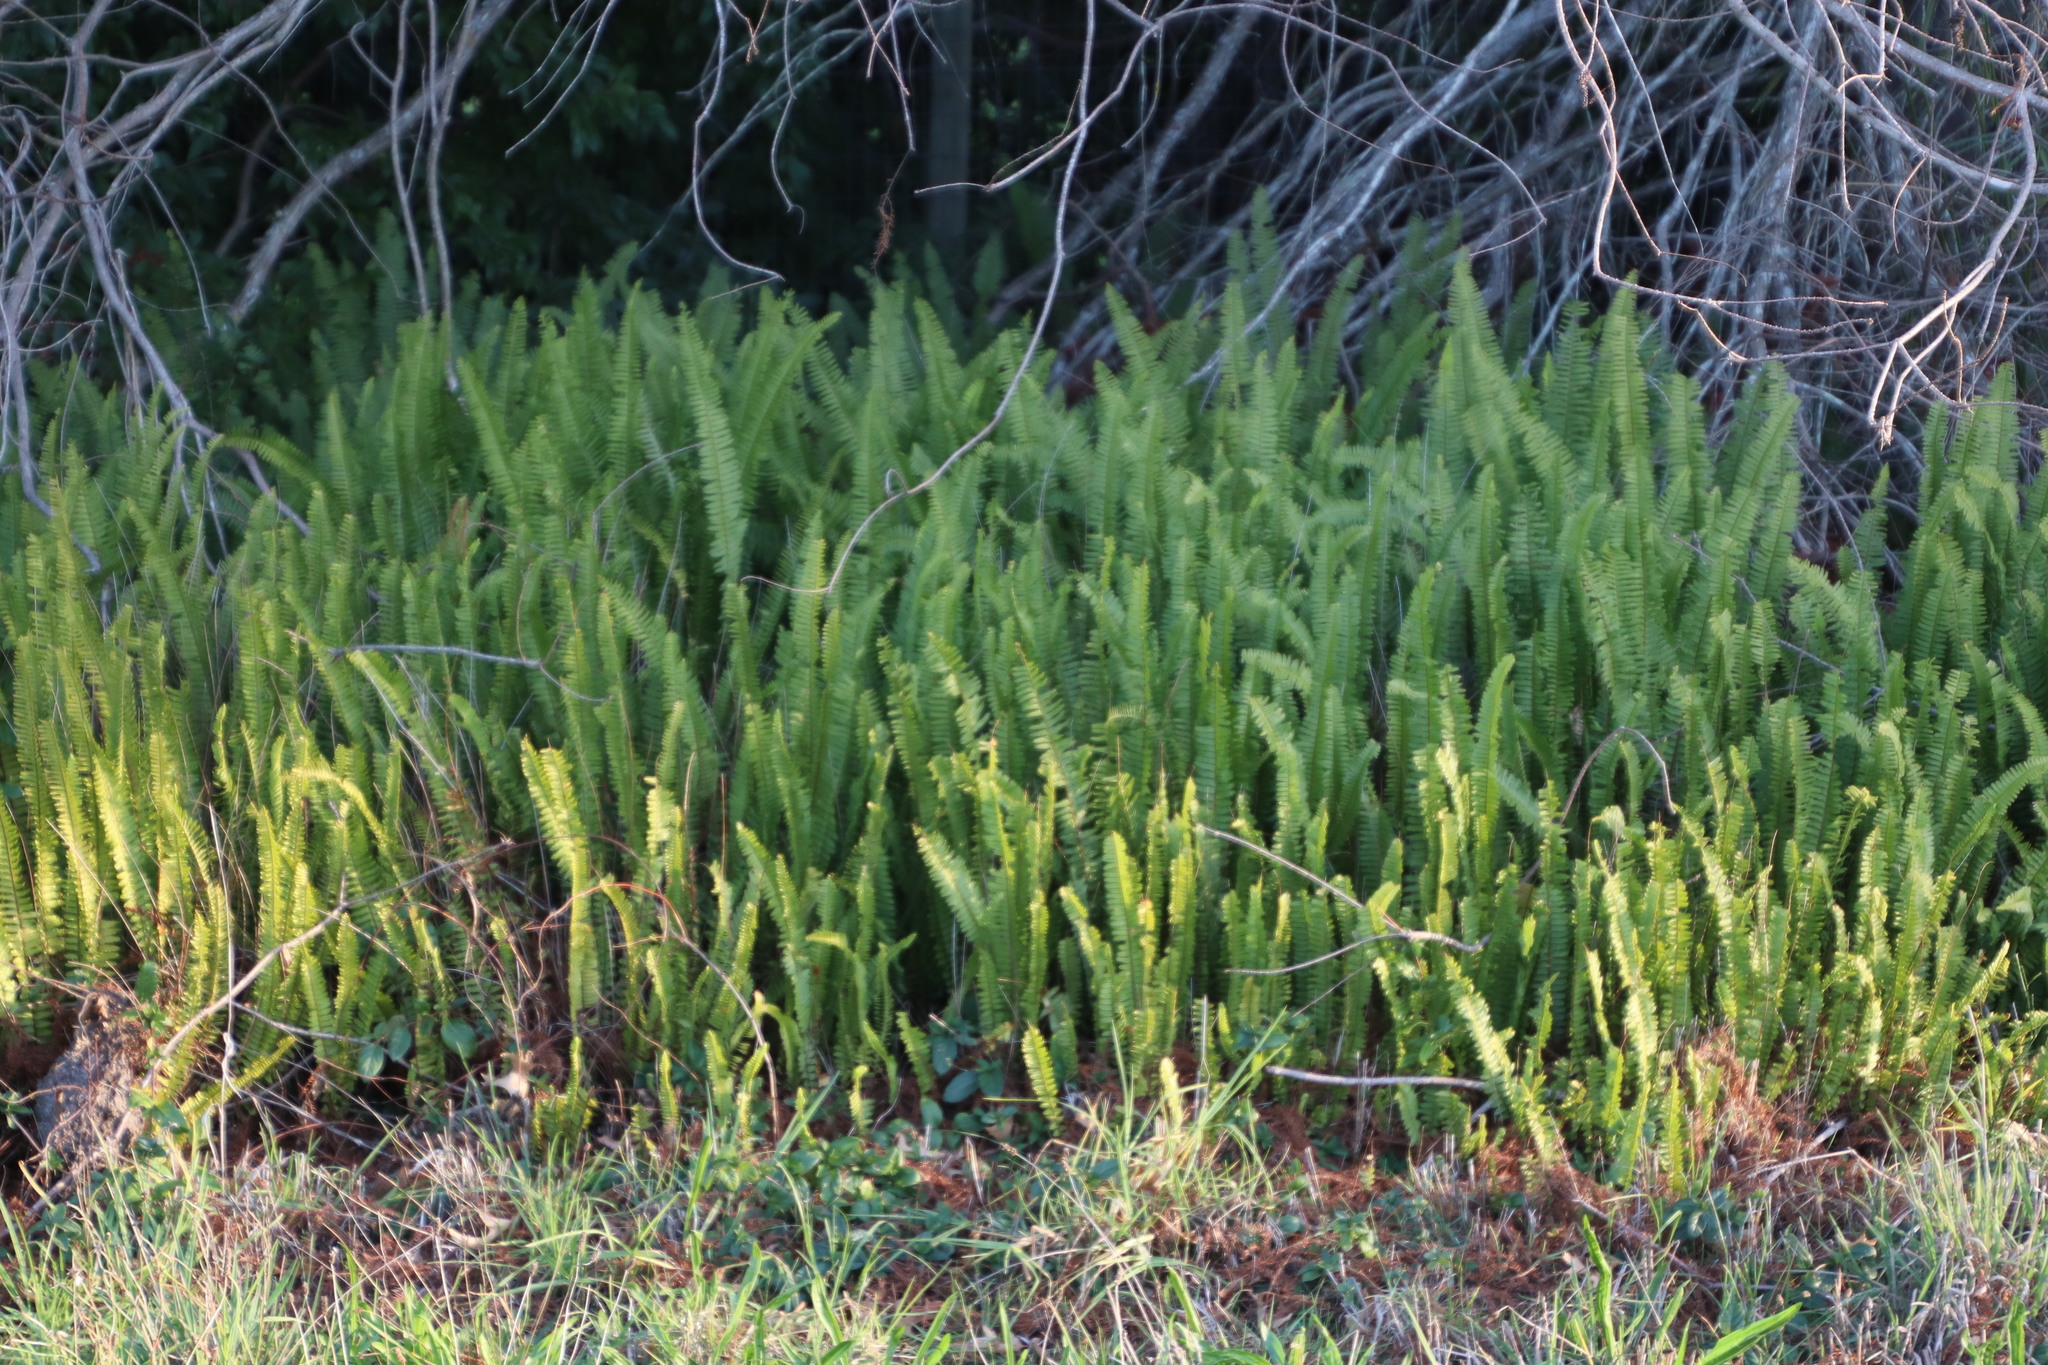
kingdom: Plantae
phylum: Tracheophyta
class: Polypodiopsida
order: Polypodiales
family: Nephrolepidaceae
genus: Nephrolepis
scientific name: Nephrolepis cordifolia
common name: Narrow swordfern
